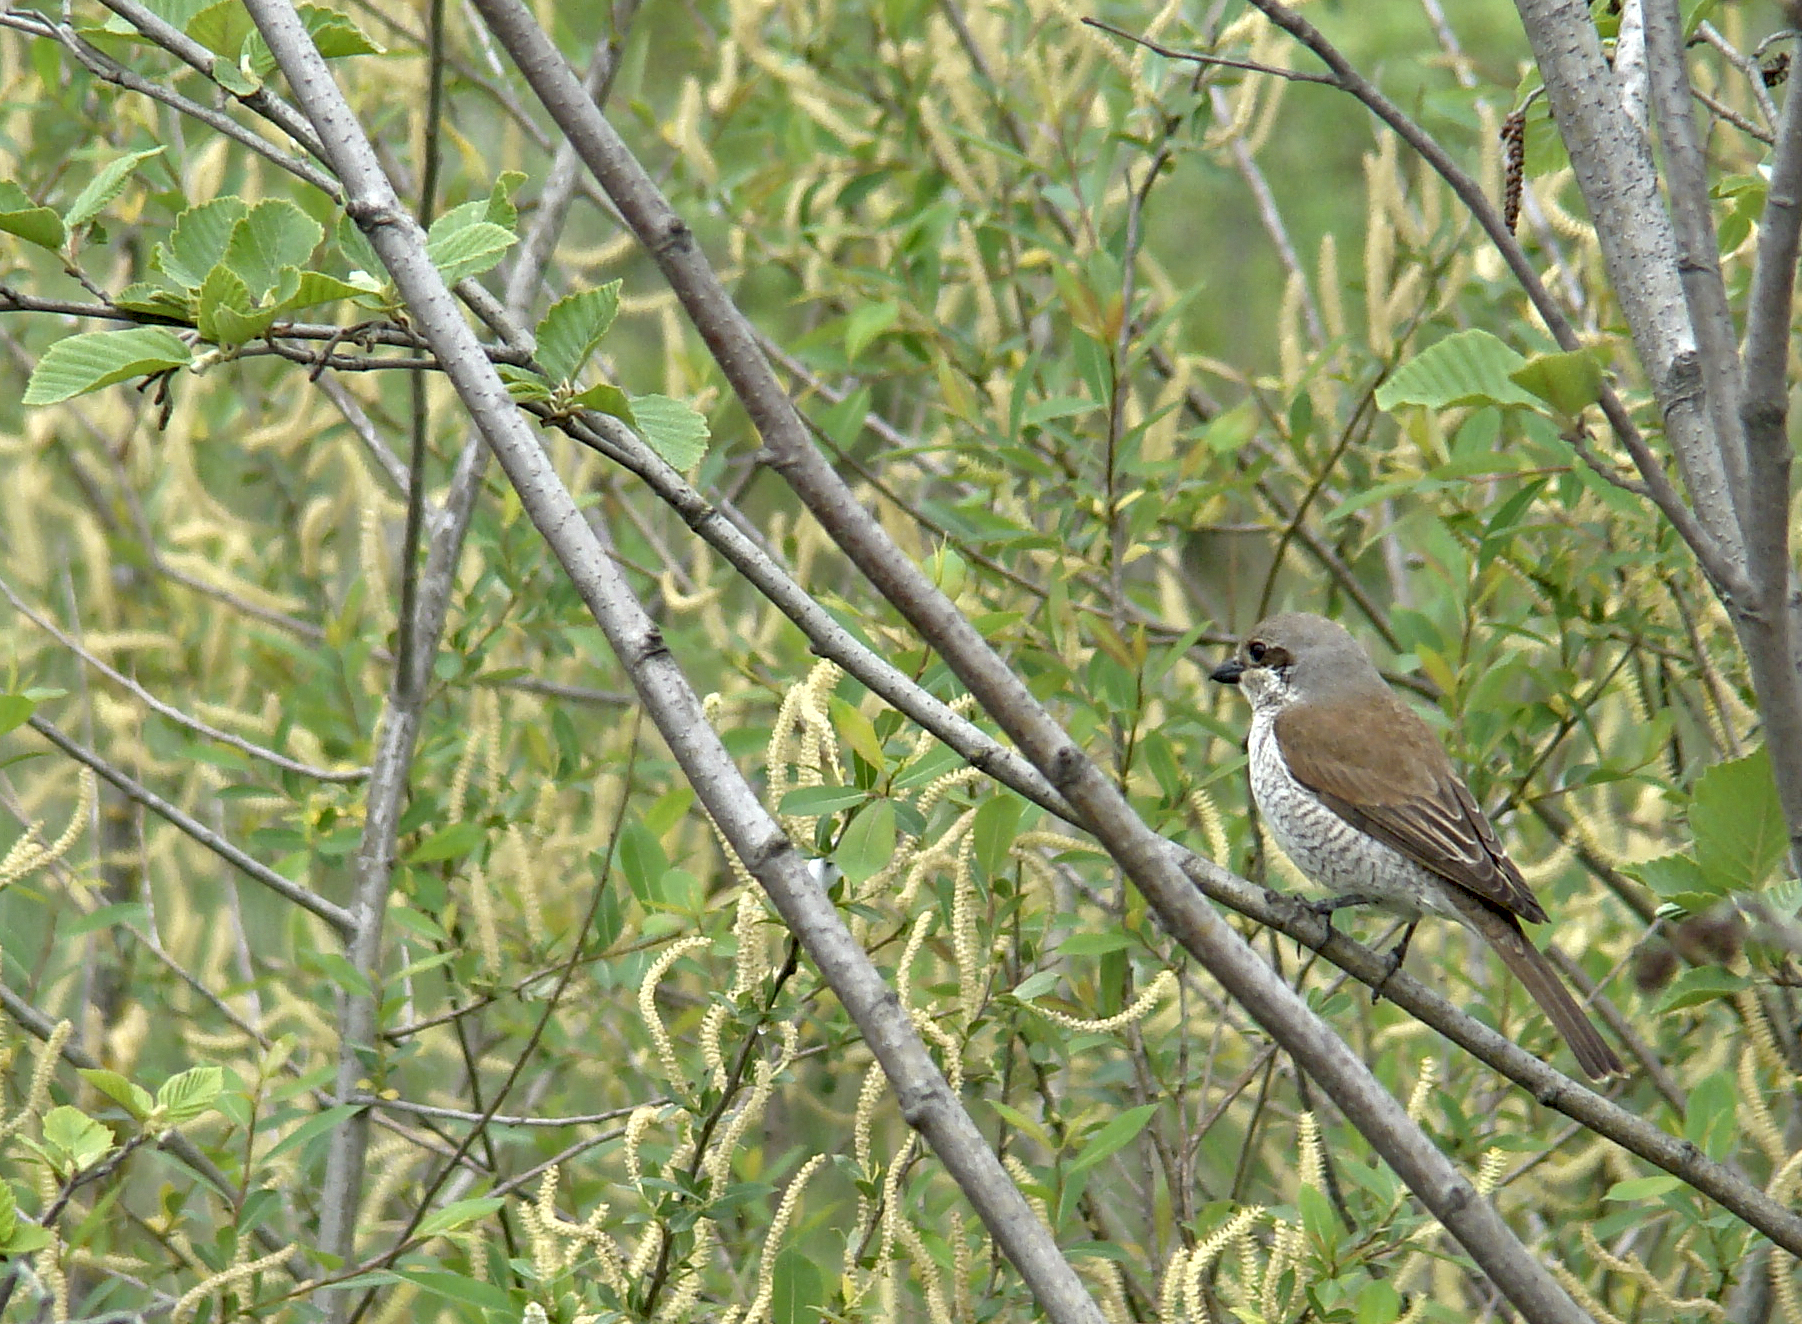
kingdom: Animalia
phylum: Chordata
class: Aves
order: Passeriformes
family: Laniidae
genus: Lanius
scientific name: Lanius collurio
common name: Red-backed shrike
